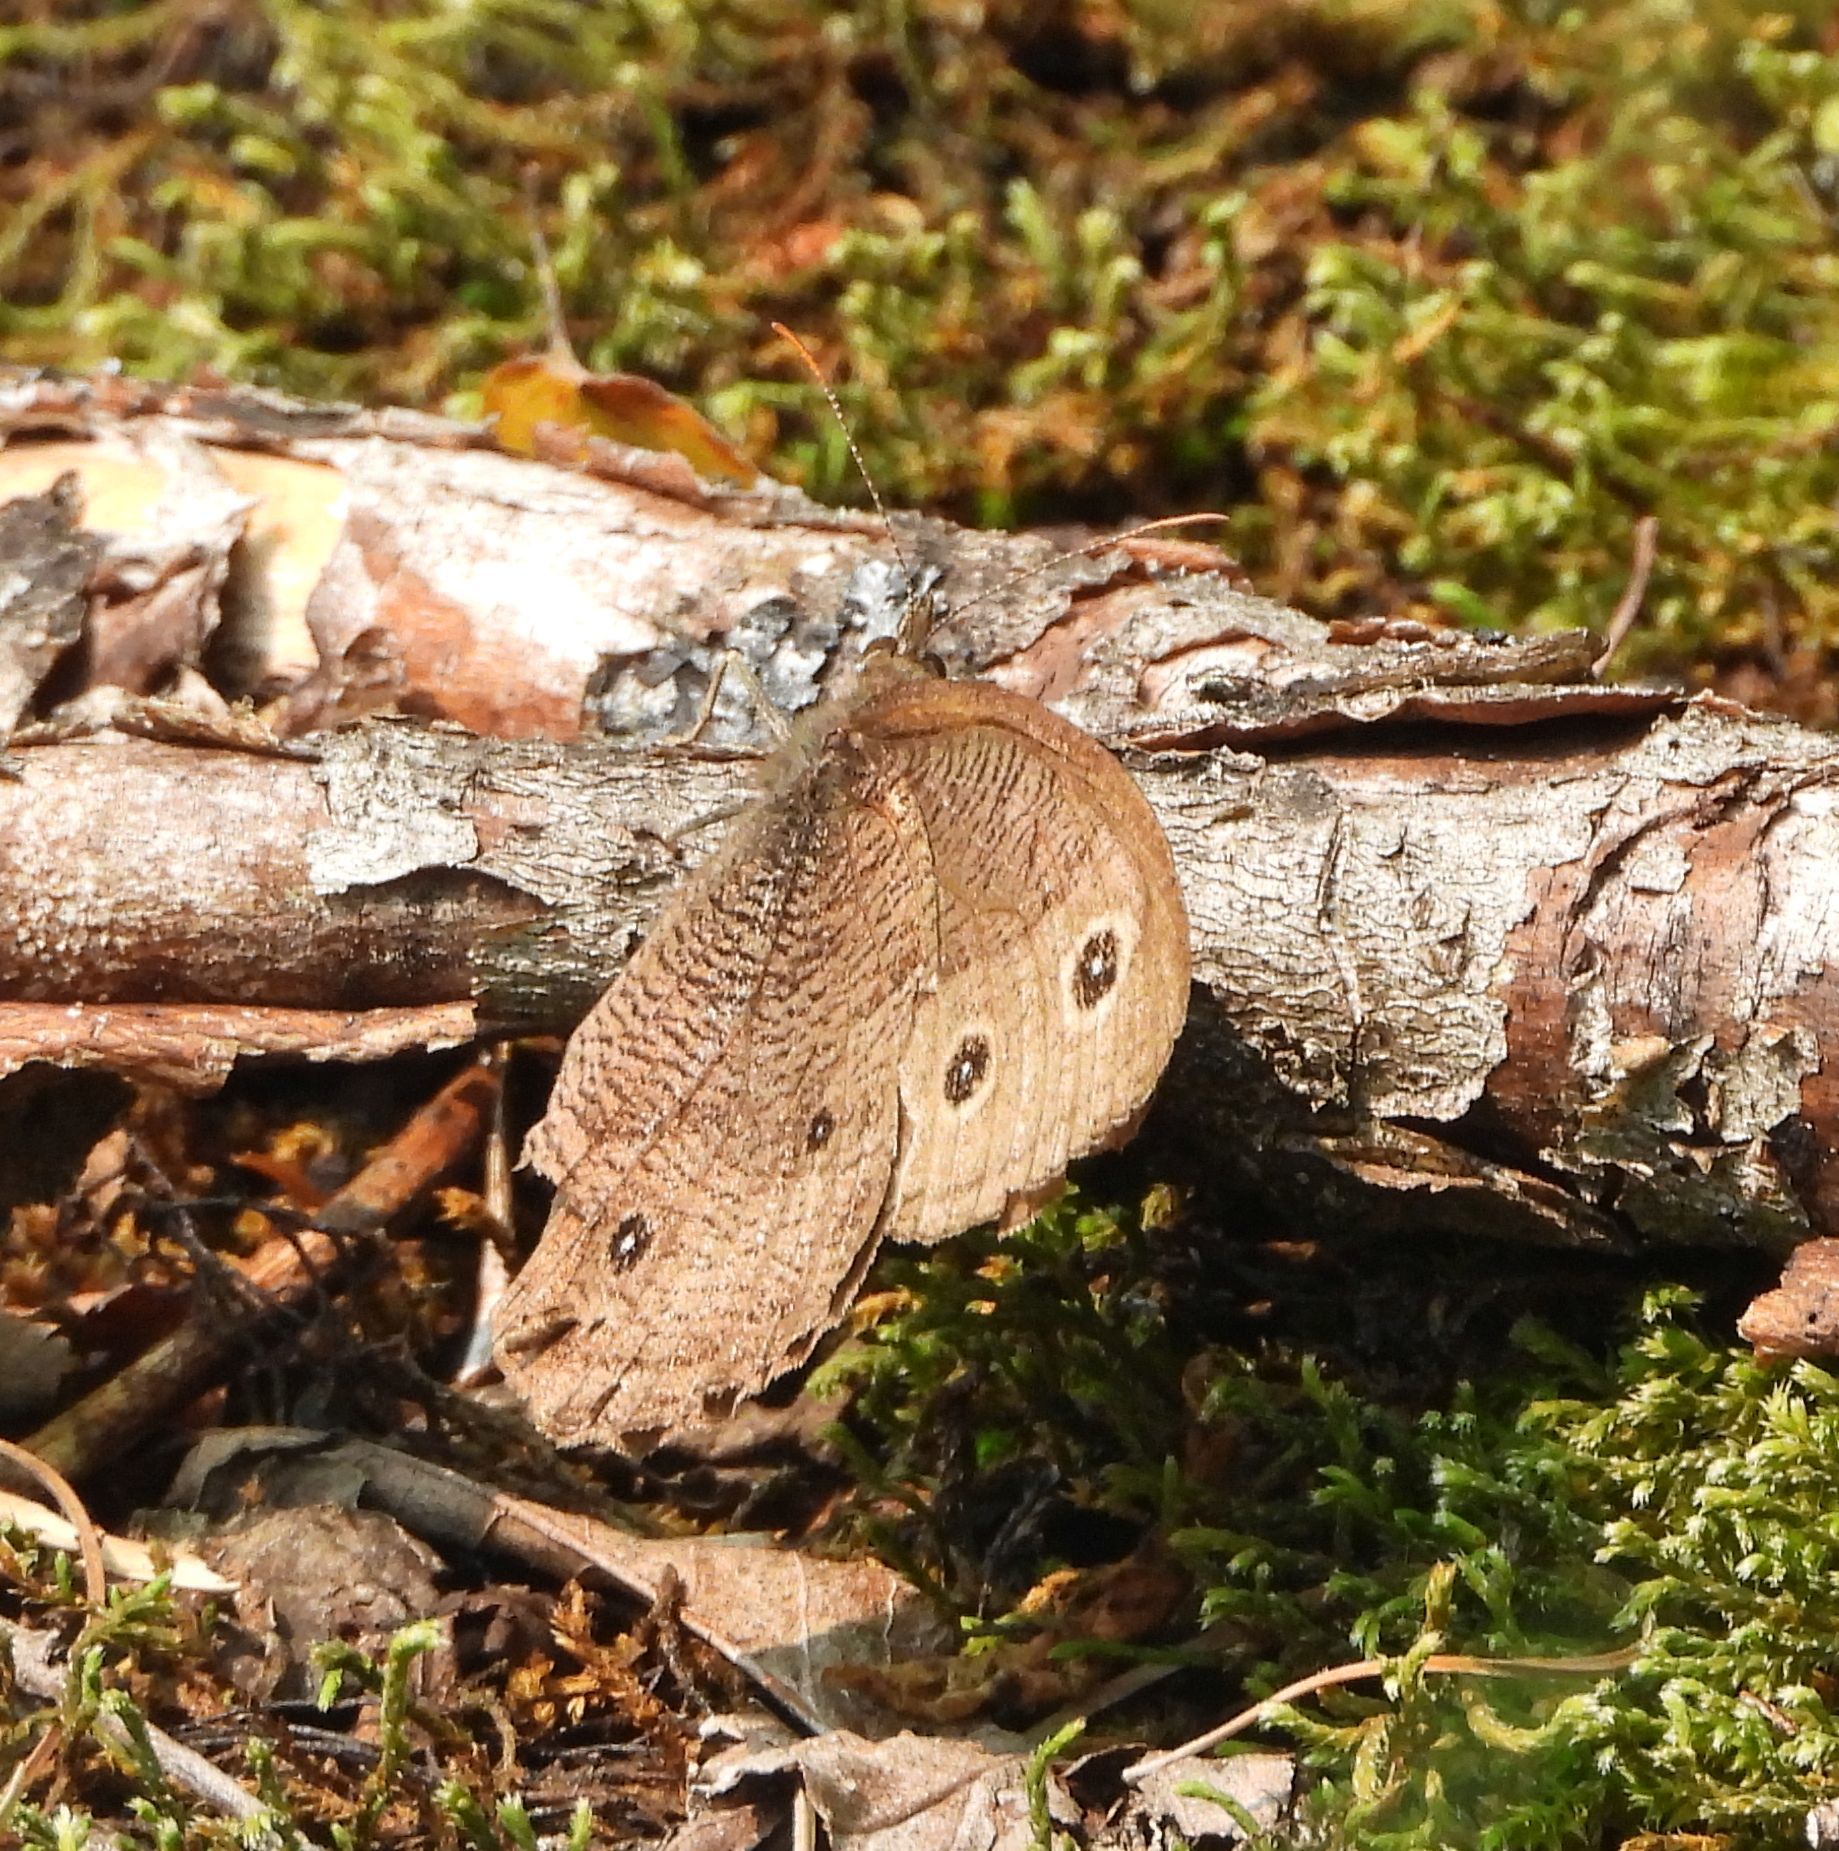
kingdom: Animalia
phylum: Arthropoda
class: Insecta
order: Lepidoptera
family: Nymphalidae
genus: Cercyonis
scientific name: Cercyonis pegala
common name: Common wood-nymph
